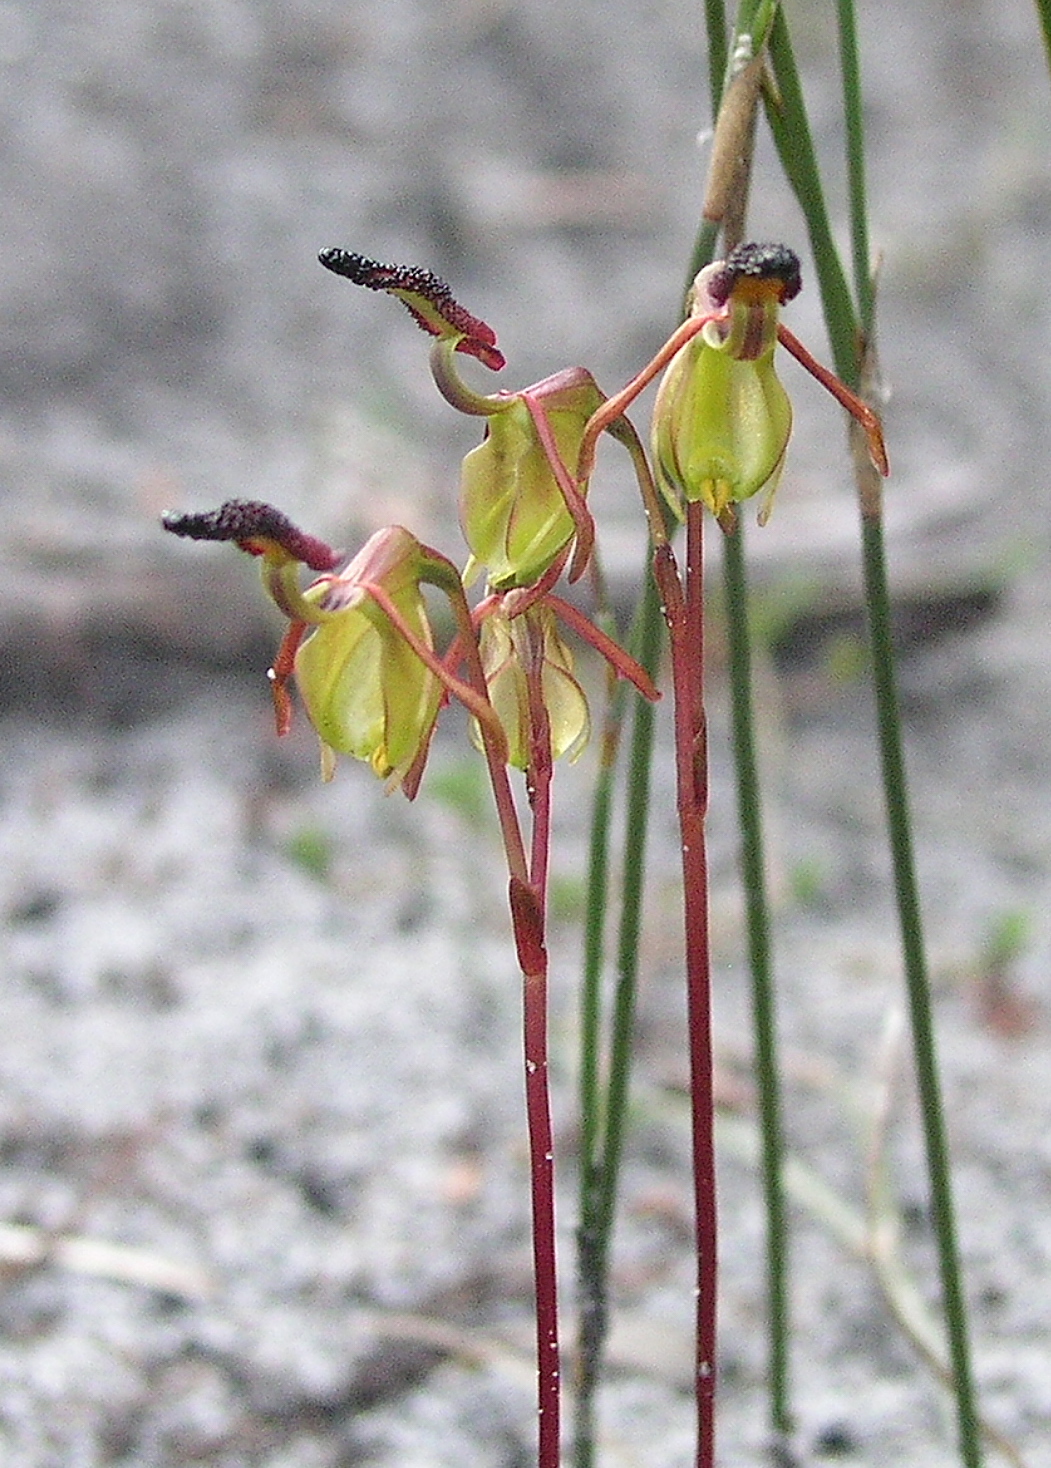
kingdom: Plantae
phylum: Tracheophyta
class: Liliopsida
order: Asparagales
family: Orchidaceae
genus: Caleana
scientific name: Caleana nigrita
